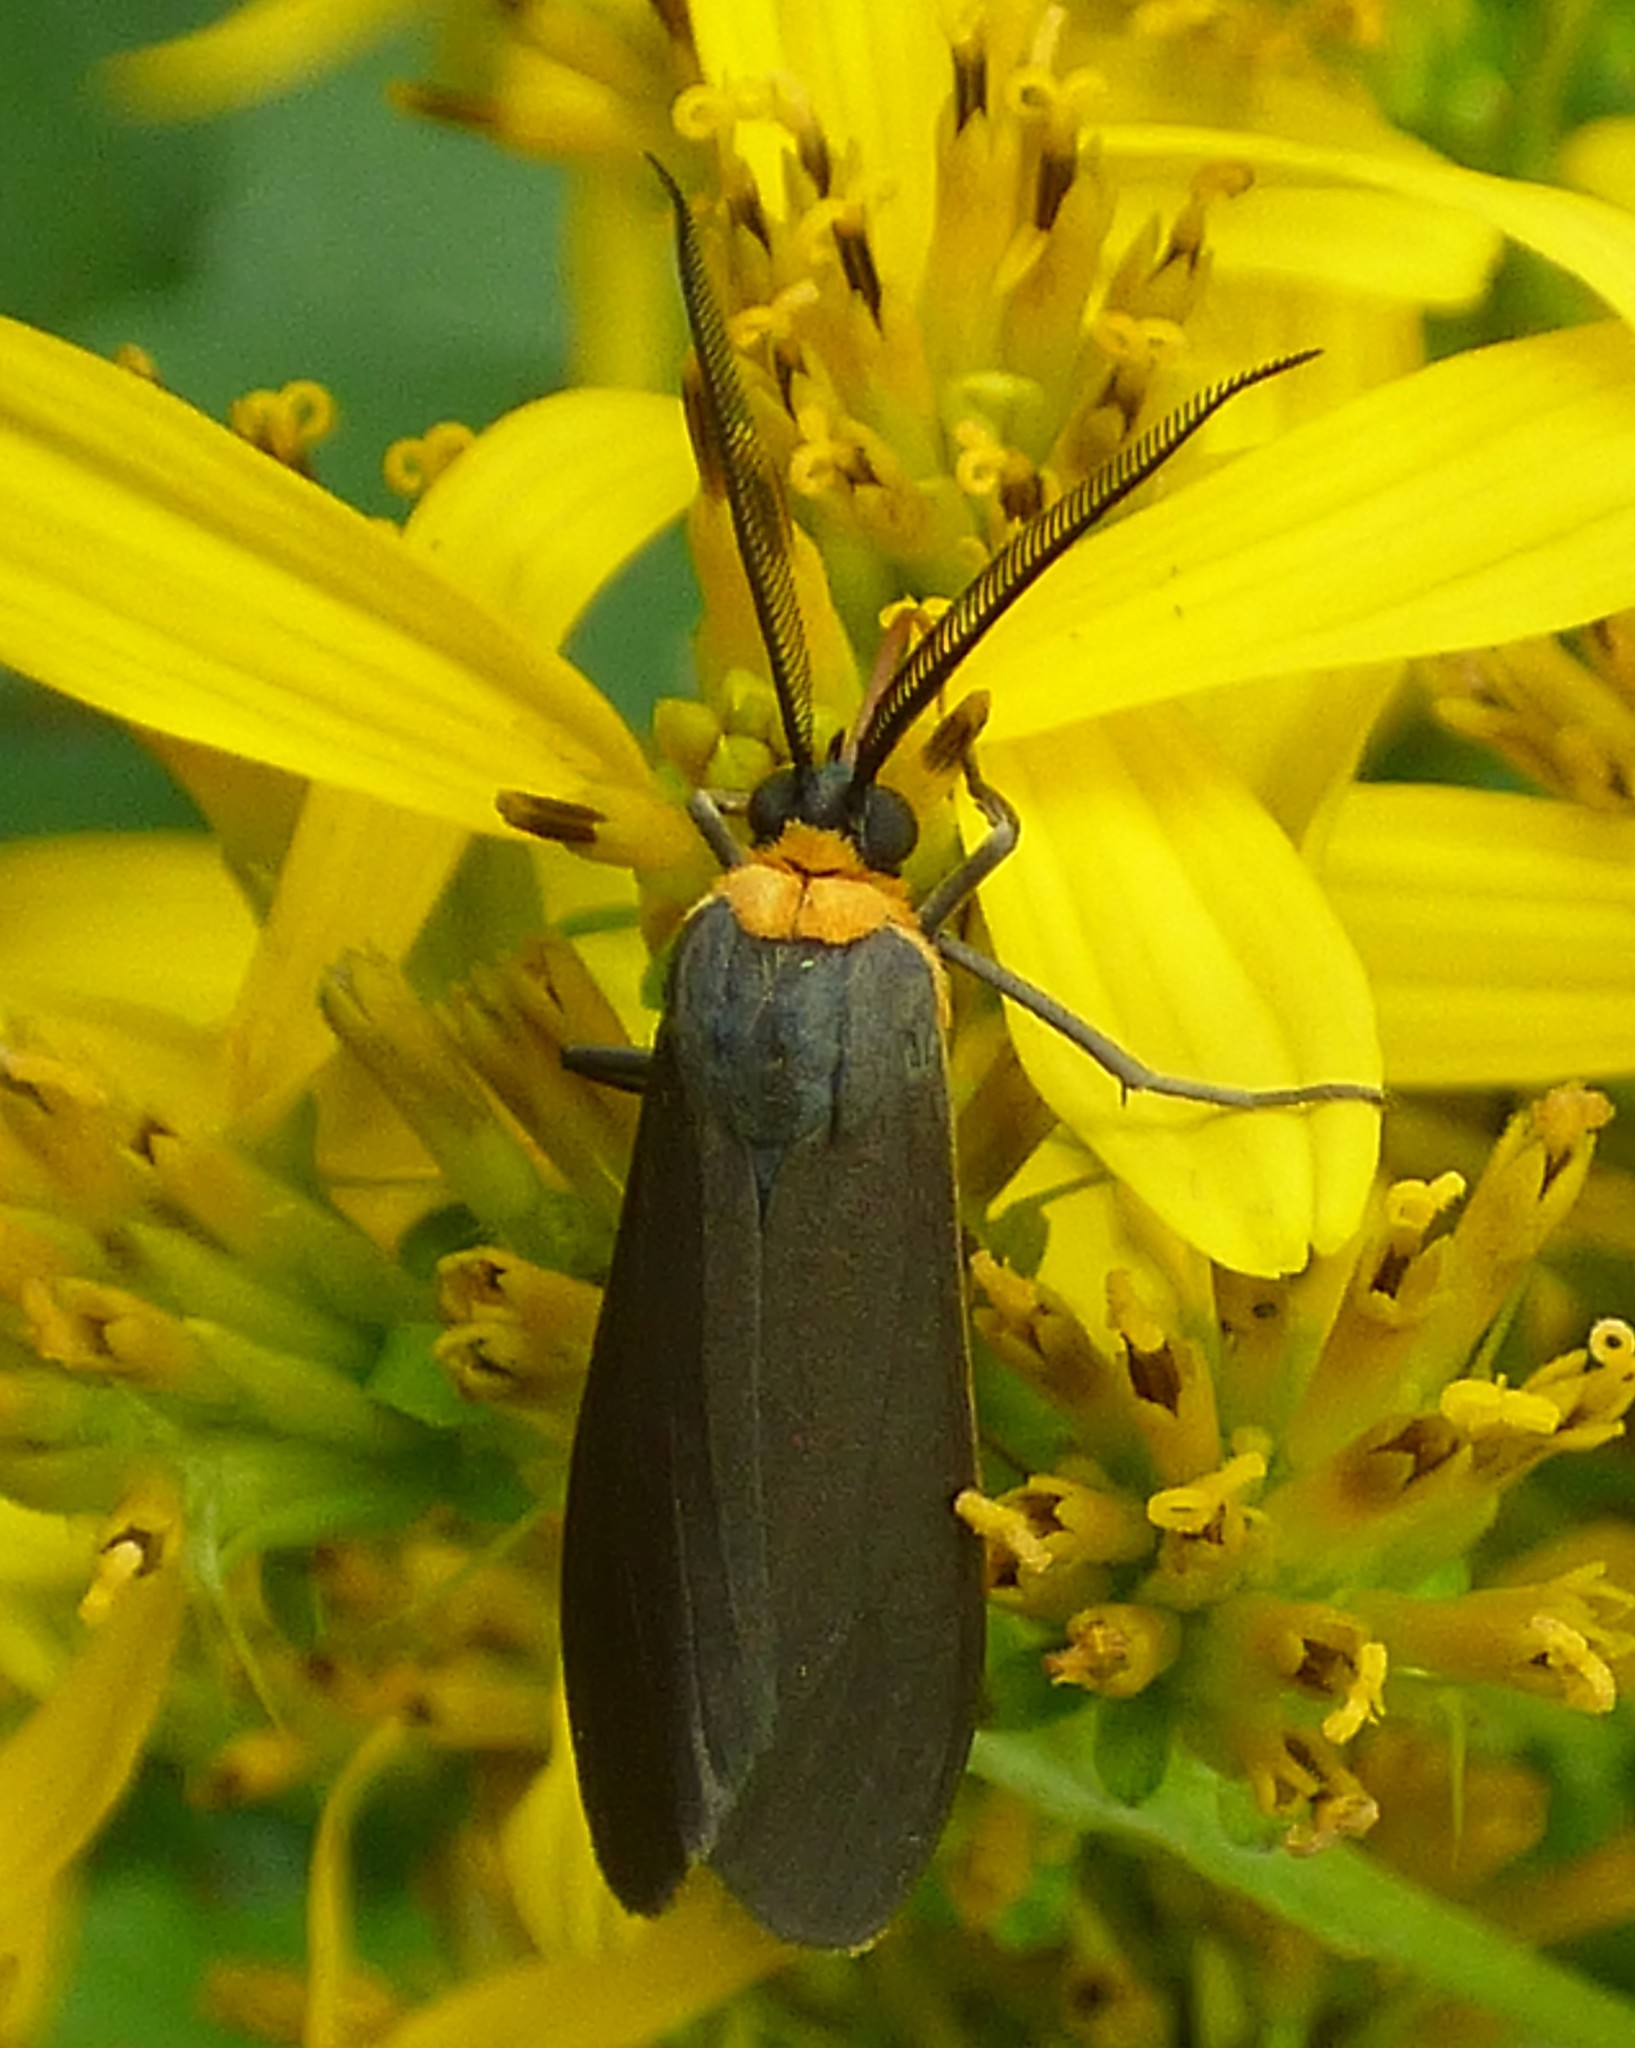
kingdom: Animalia
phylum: Arthropoda
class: Insecta
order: Lepidoptera
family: Erebidae
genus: Cisseps
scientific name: Cisseps fulvicollis
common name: Yellow-collared scape moth
